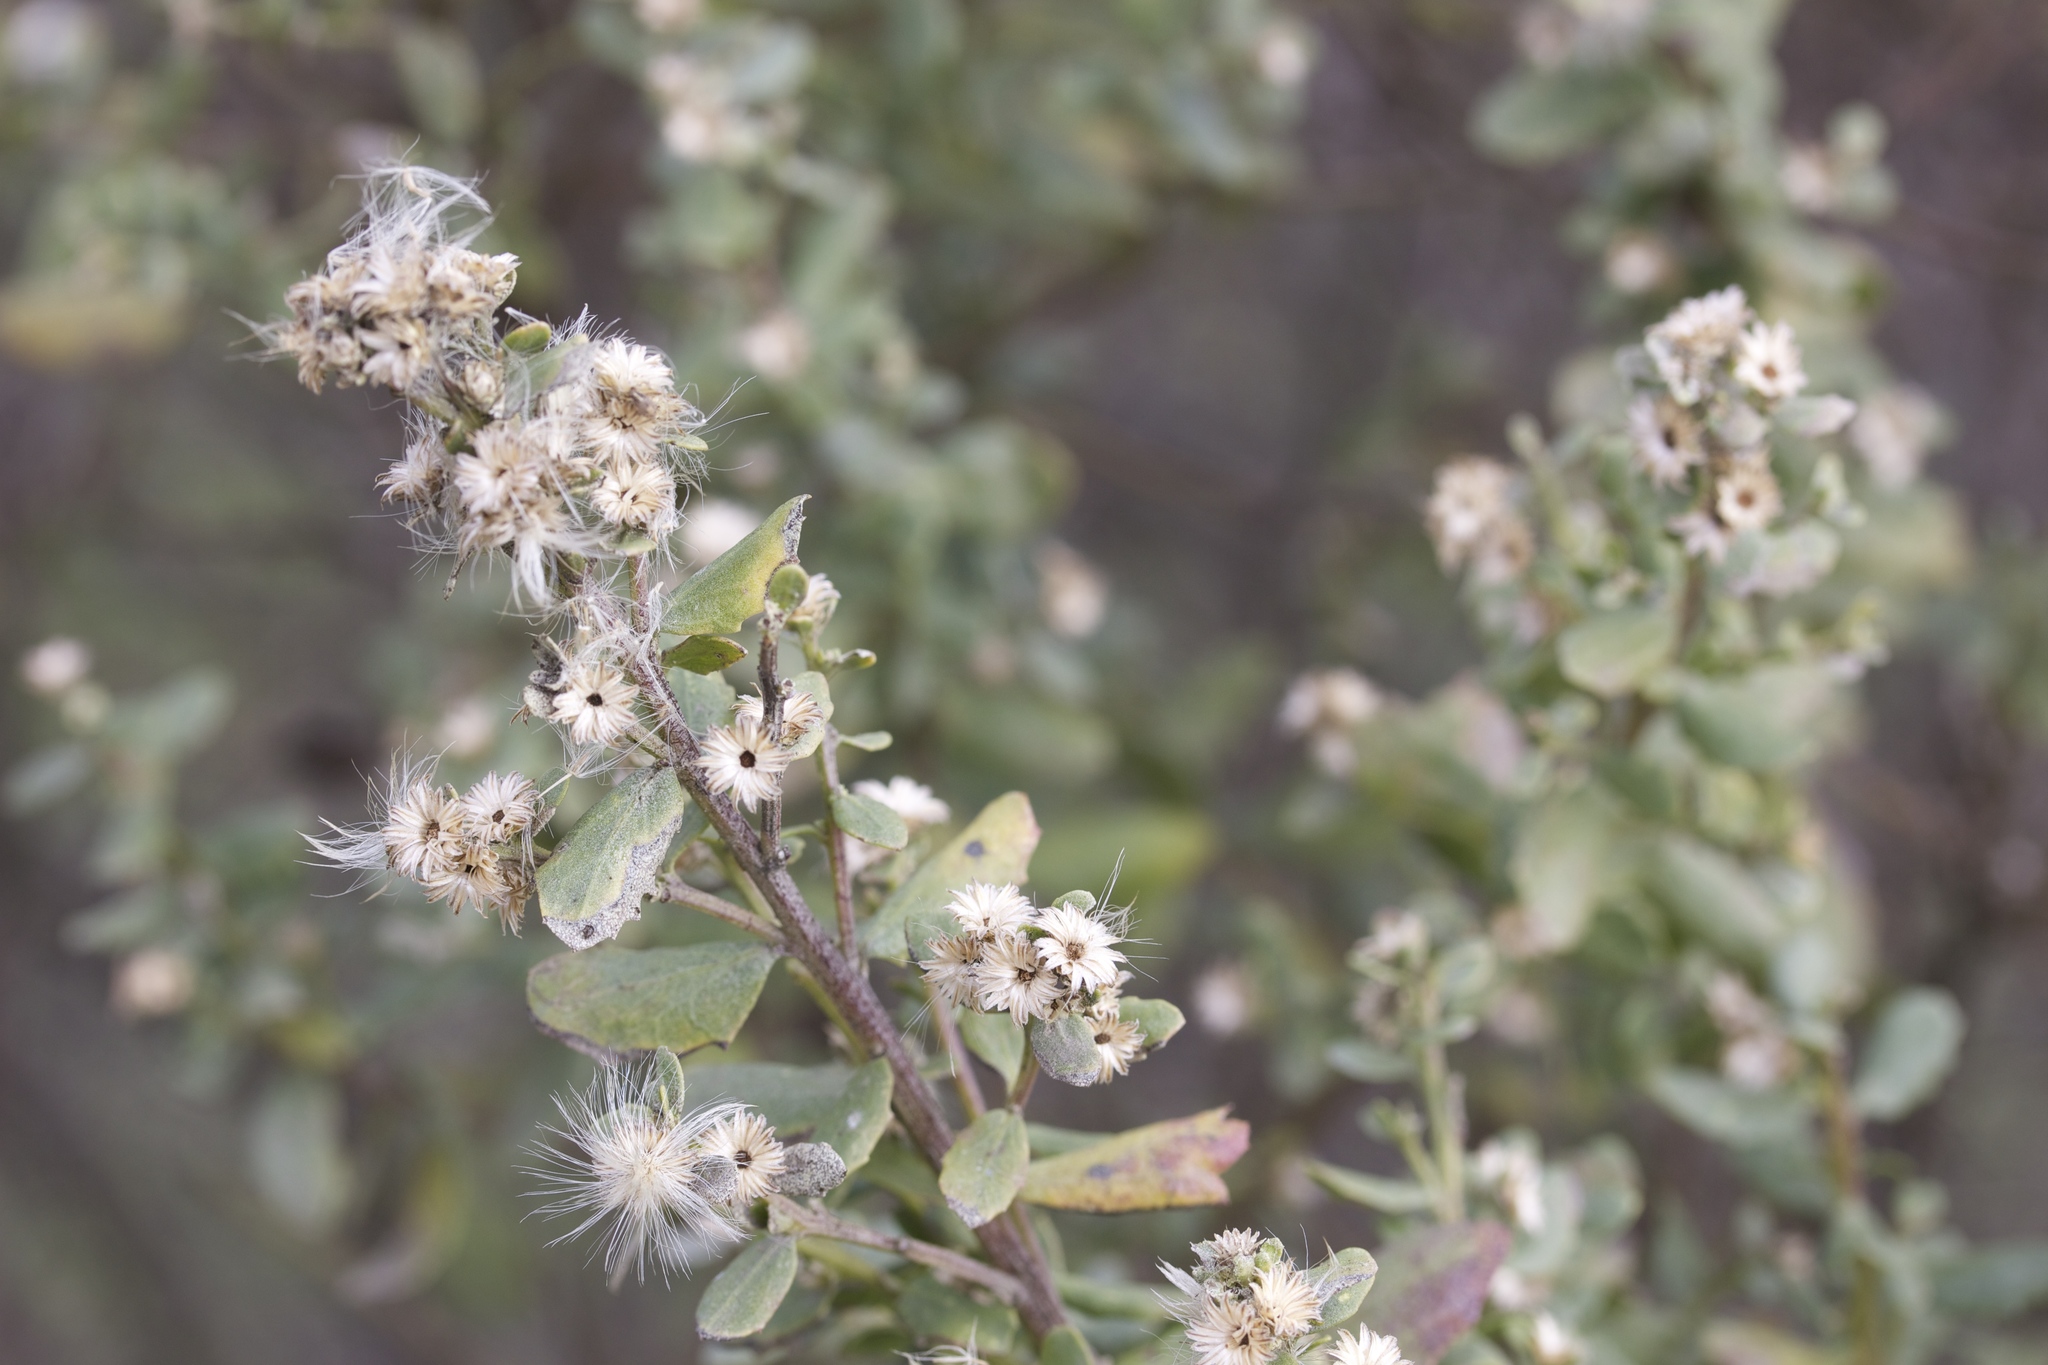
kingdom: Plantae
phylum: Tracheophyta
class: Magnoliopsida
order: Asterales
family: Asteraceae
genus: Baccharis
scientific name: Baccharis pilularis
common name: Coyotebrush
